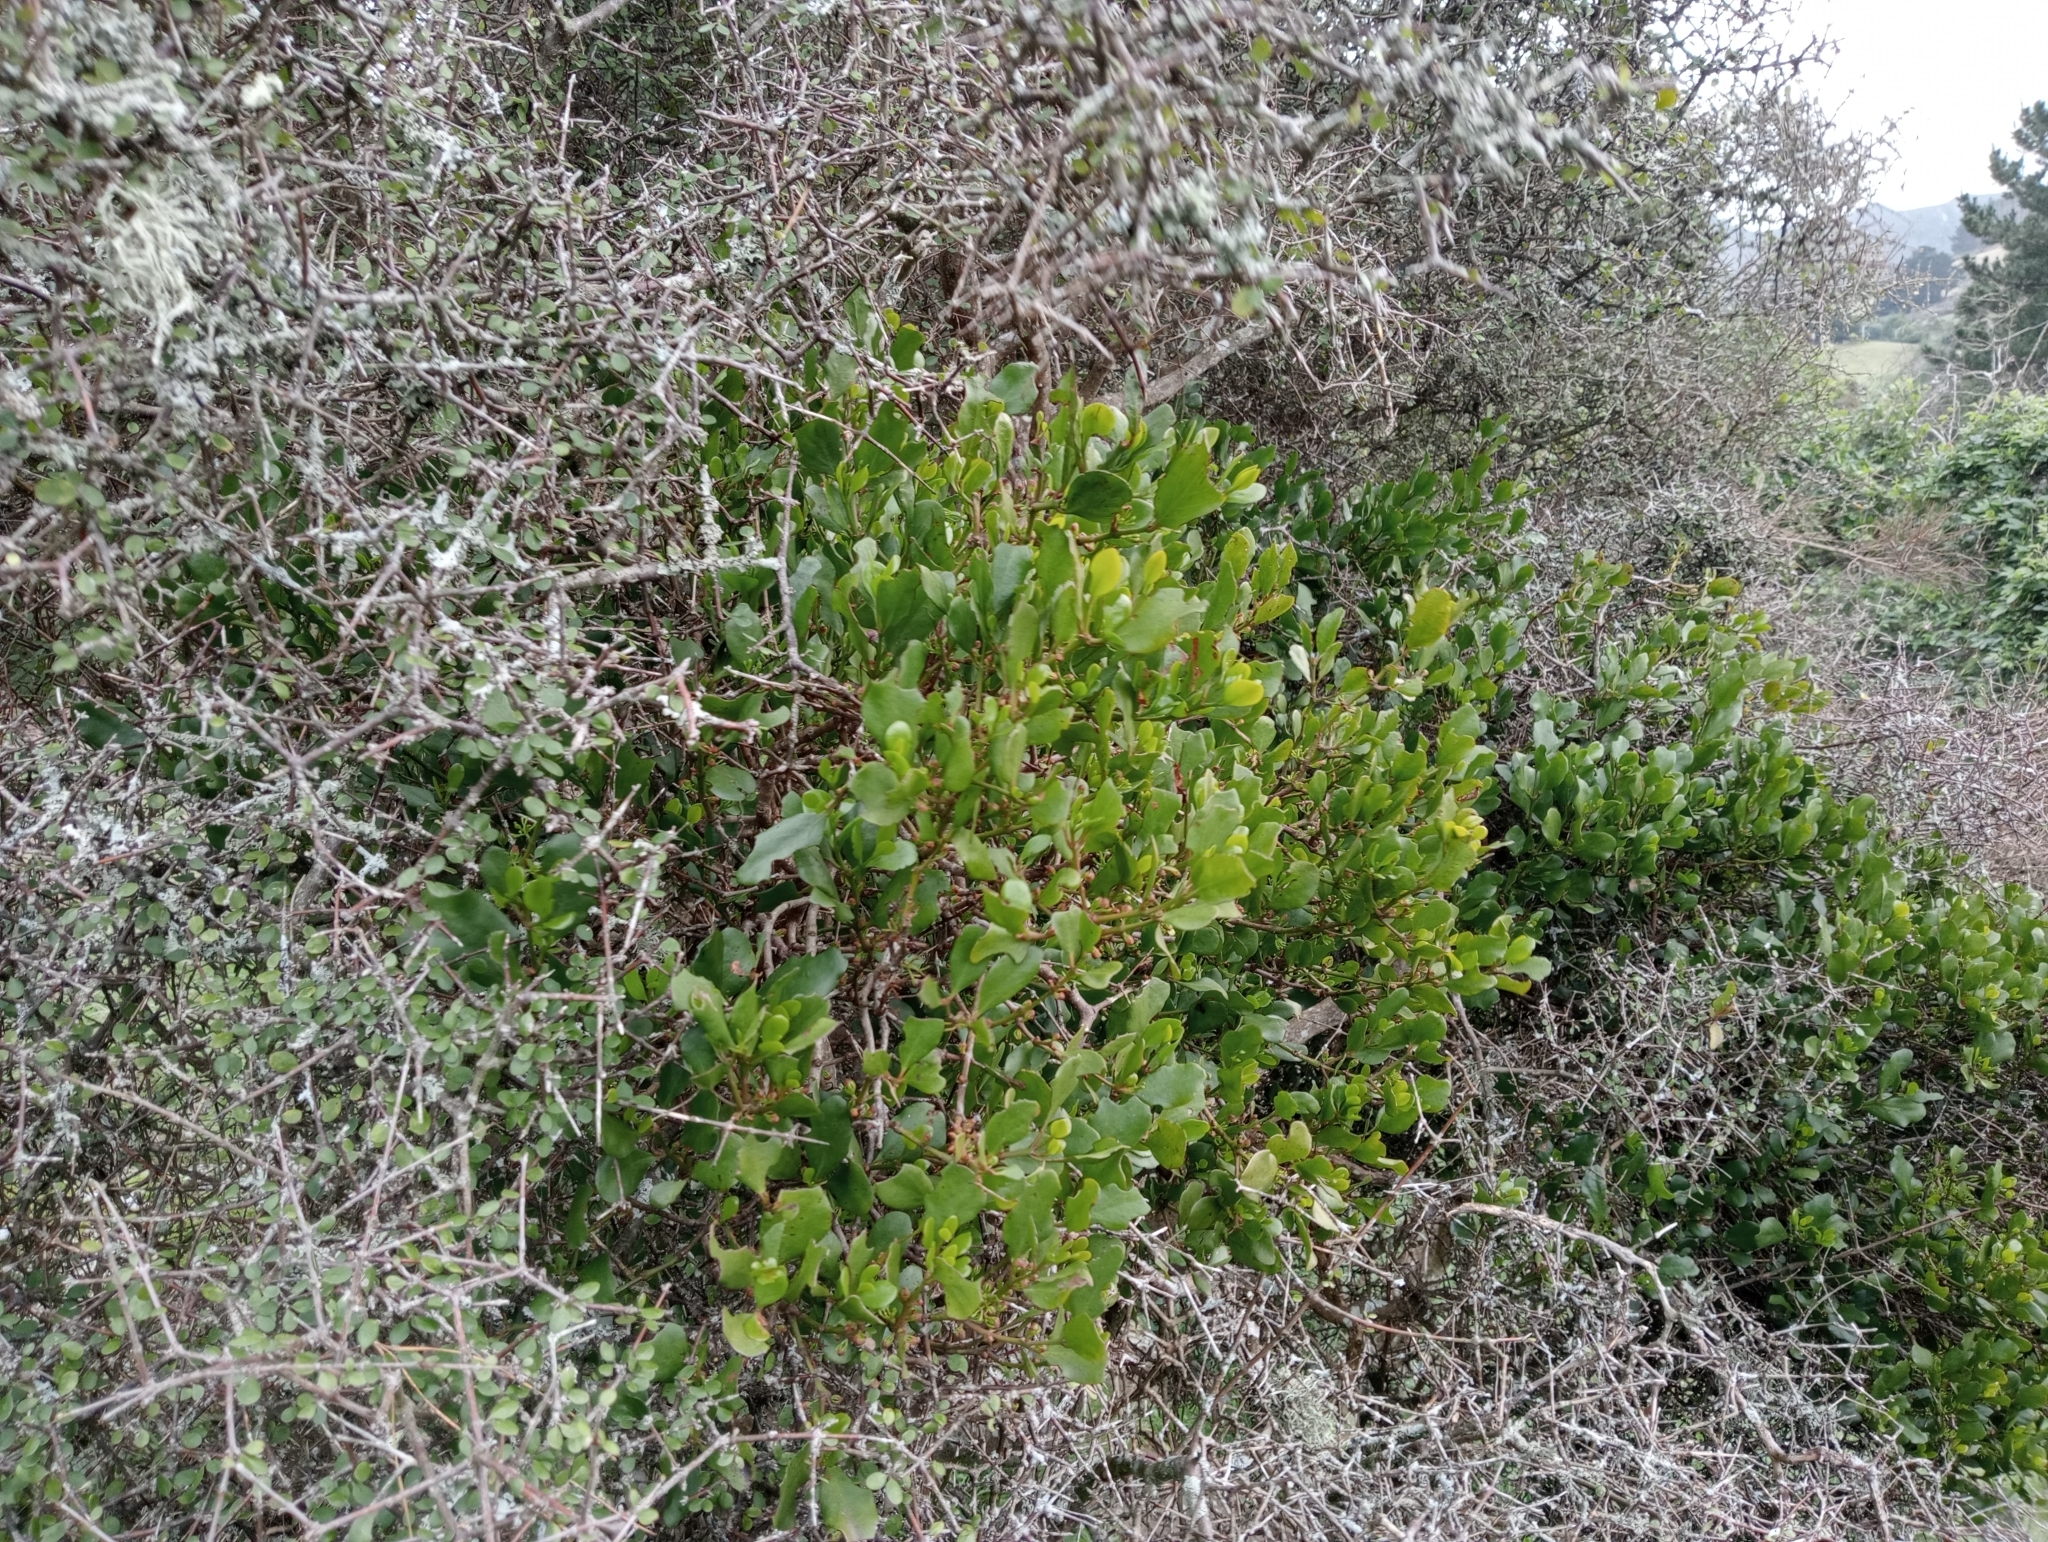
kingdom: Plantae
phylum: Tracheophyta
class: Magnoliopsida
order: Santalales
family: Loranthaceae
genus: Ileostylus
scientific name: Ileostylus micranthus
